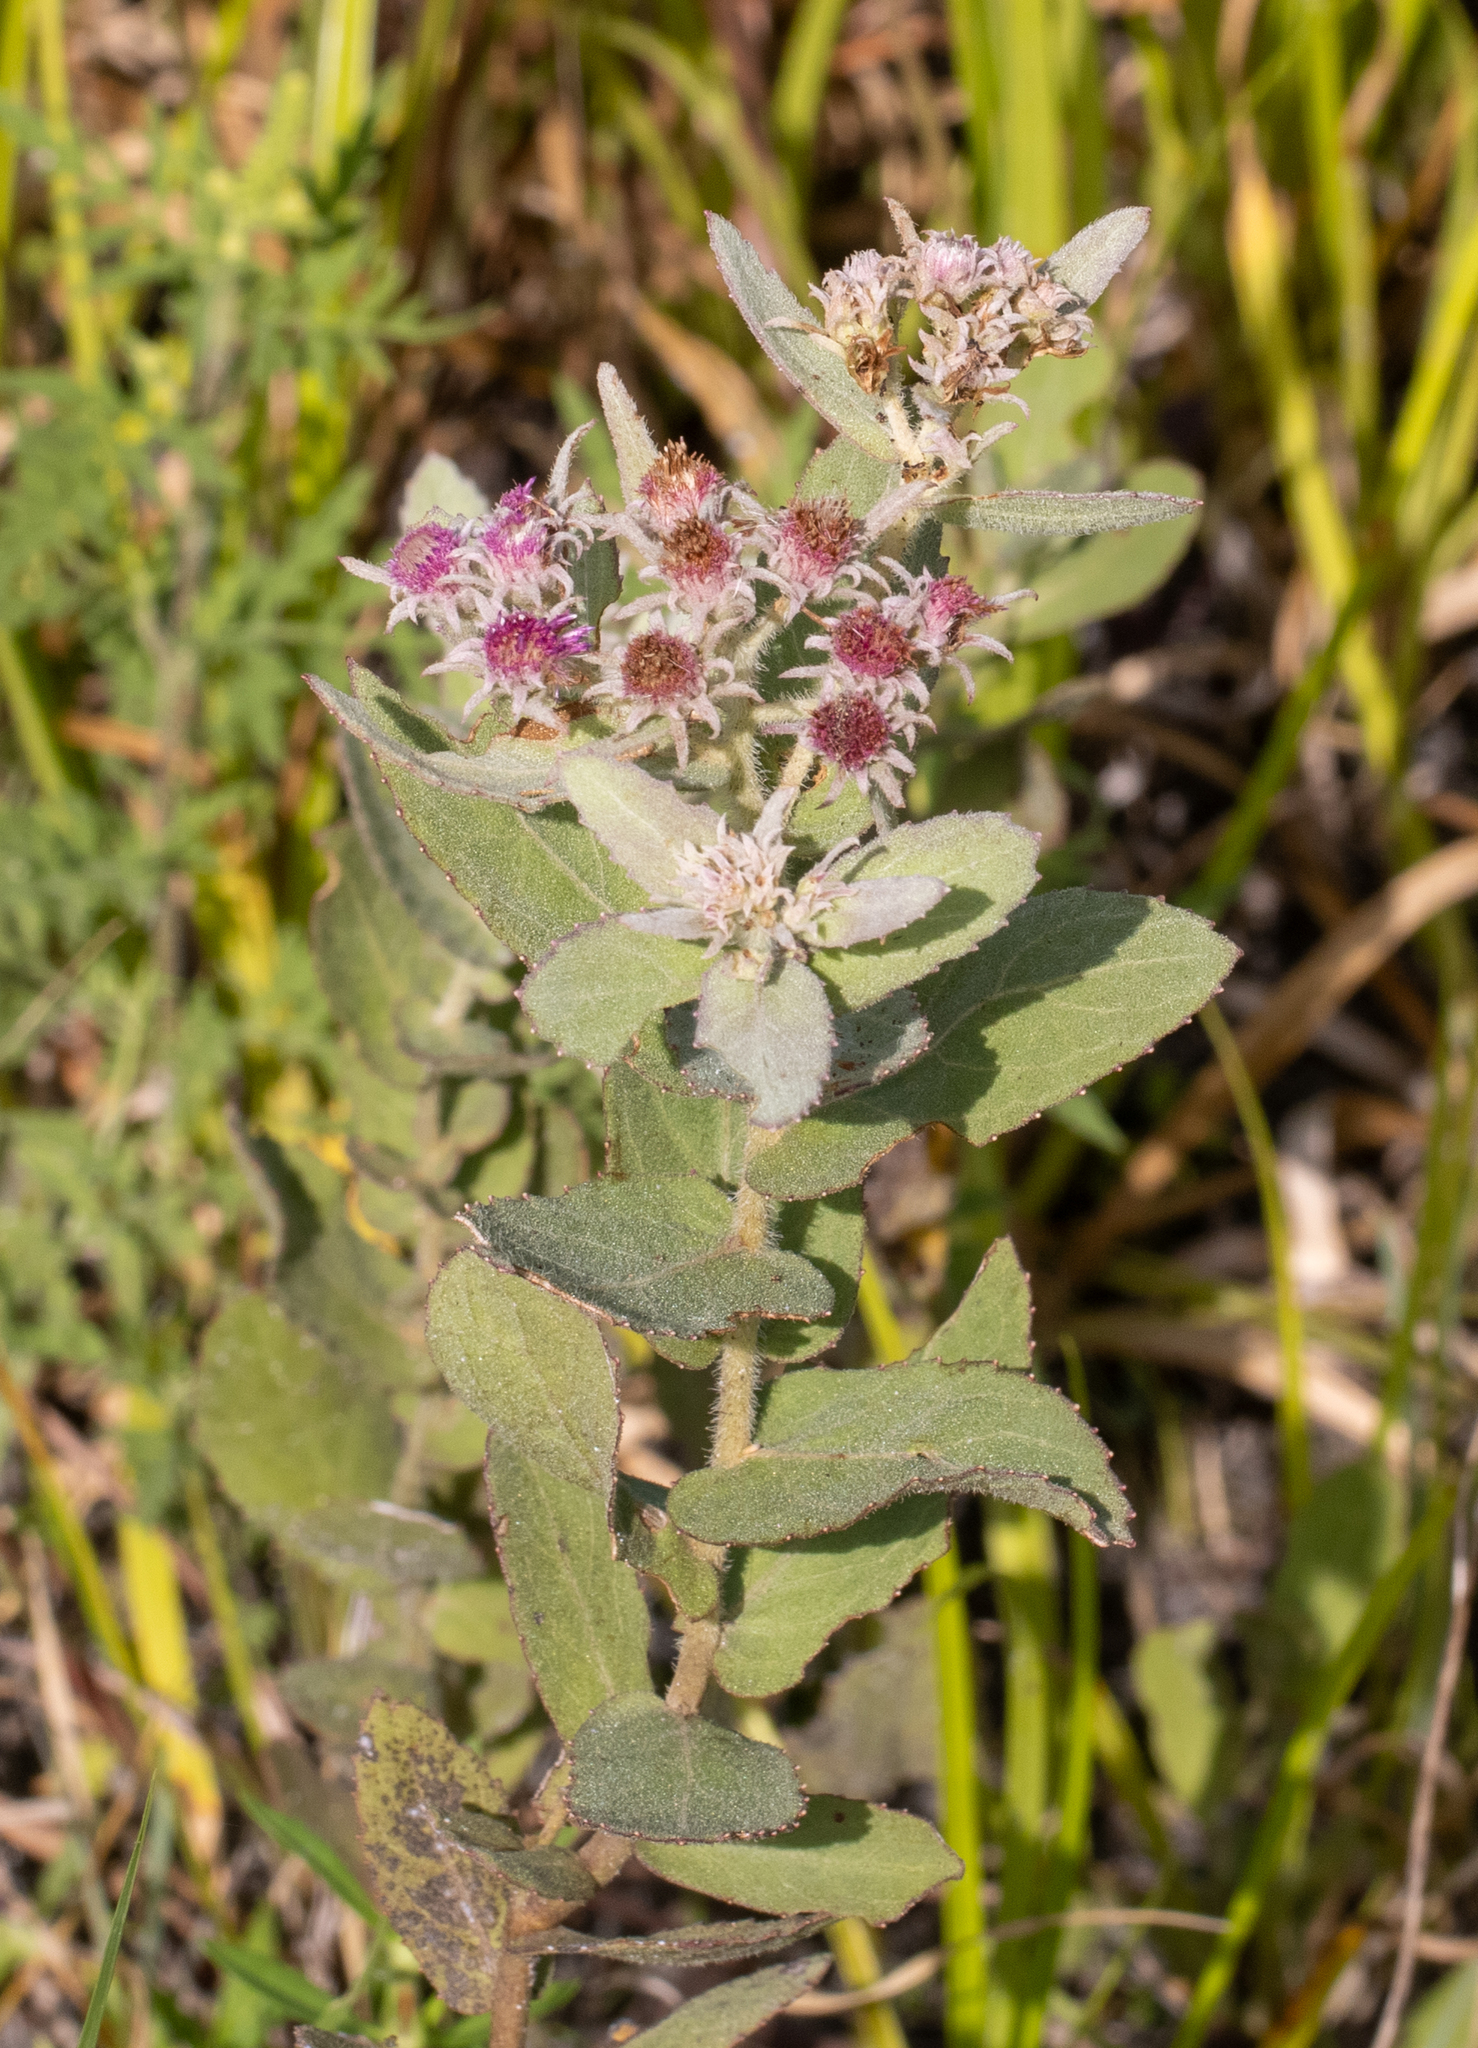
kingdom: Plantae
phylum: Tracheophyta
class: Magnoliopsida
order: Asterales
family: Asteraceae
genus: Pluchea
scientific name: Pluchea baccharis
